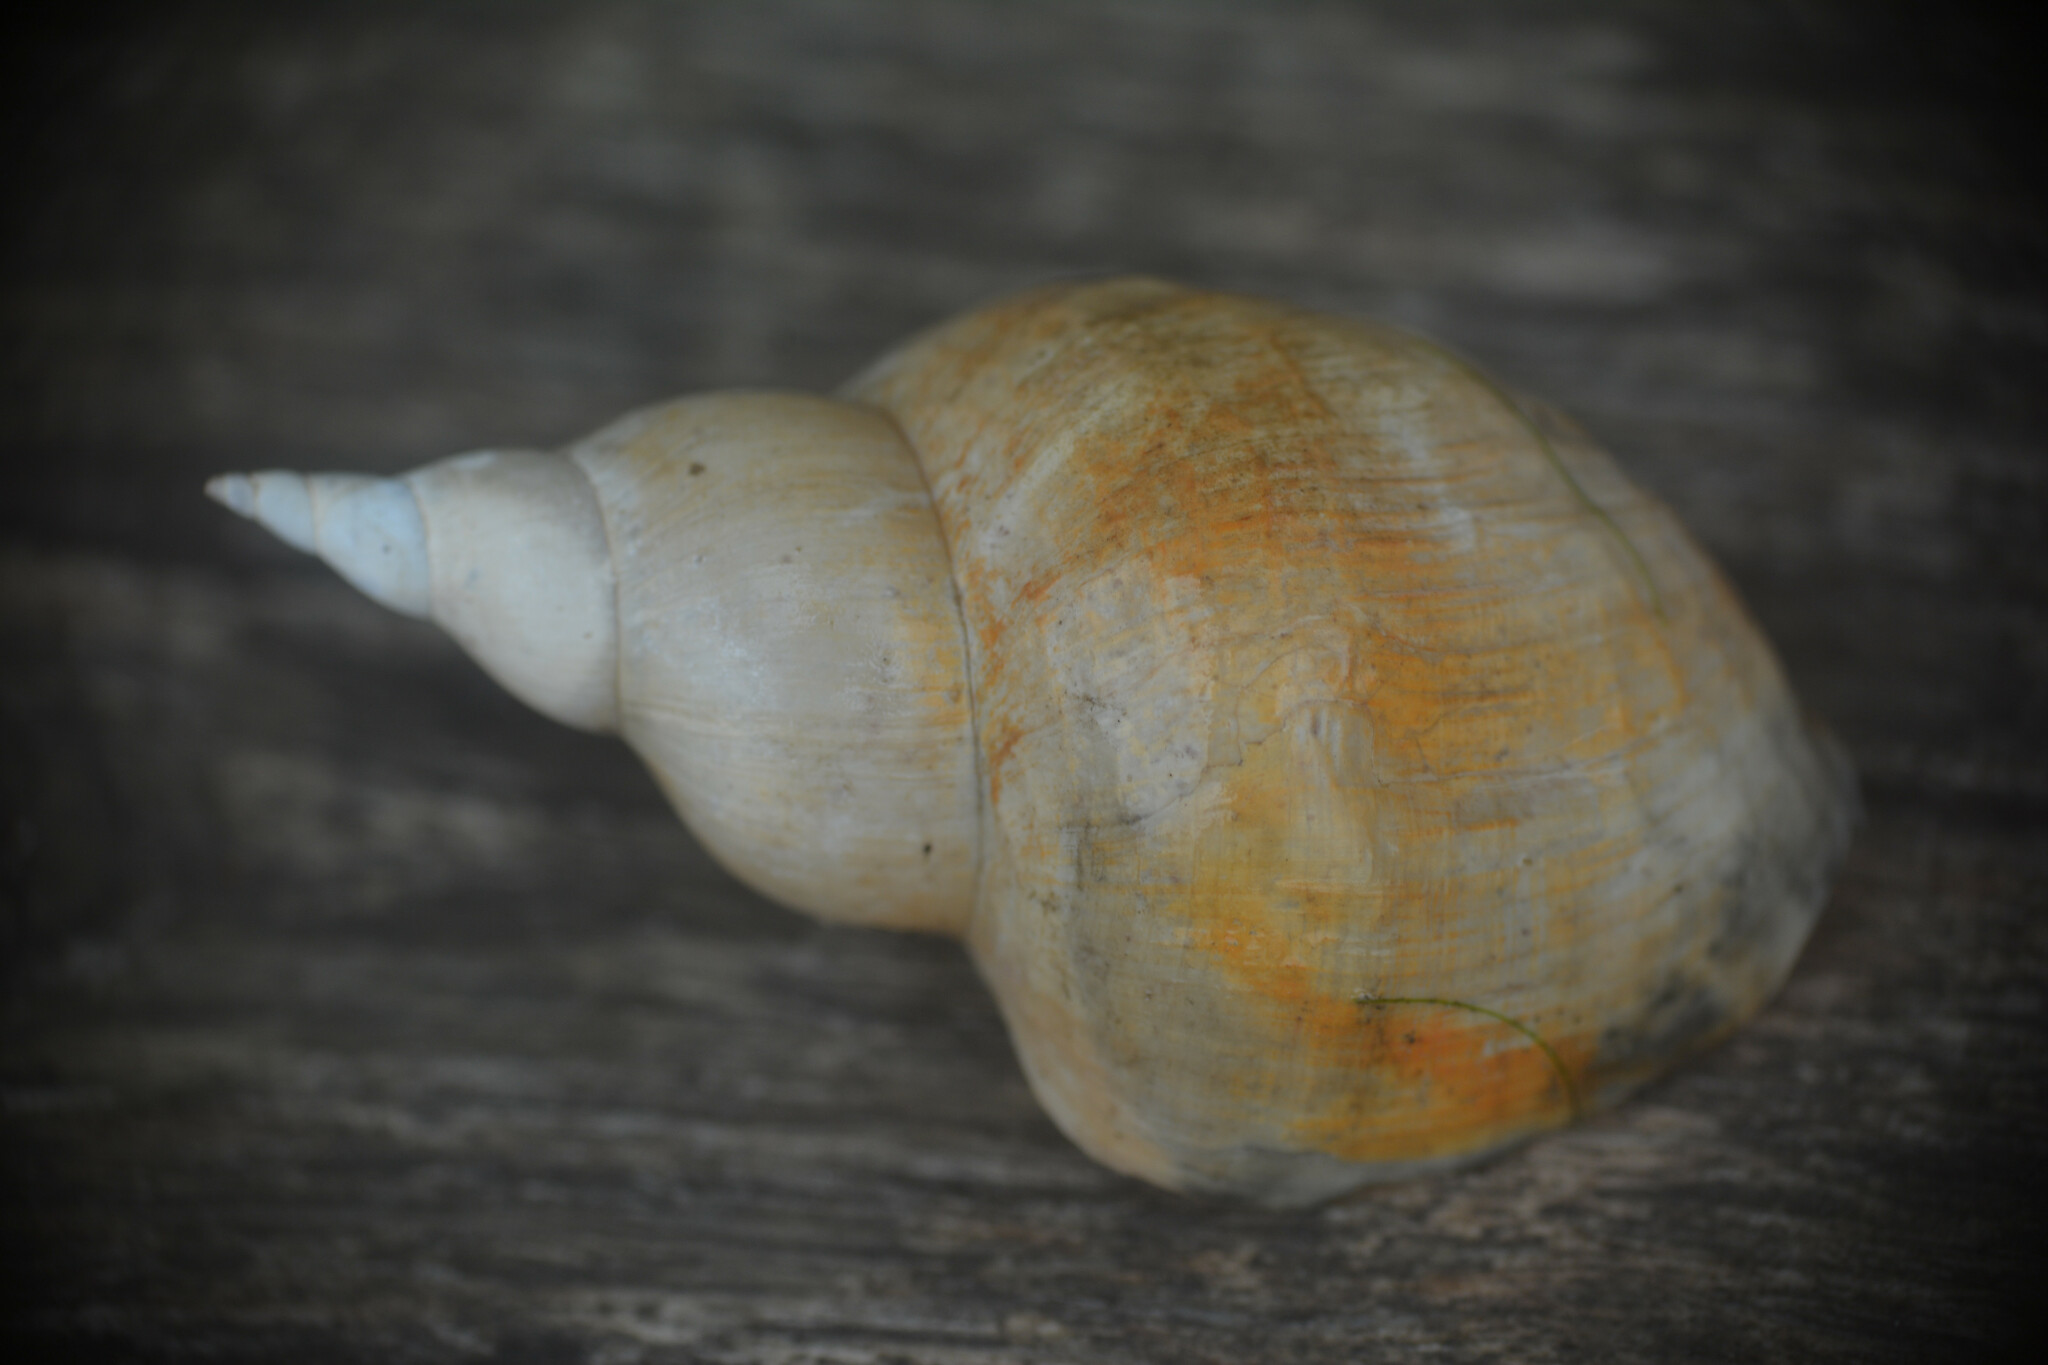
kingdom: Animalia
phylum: Mollusca
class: Gastropoda
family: Lymnaeidae
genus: Lymnaea
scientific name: Lymnaea stagnalis
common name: Great pond snail
